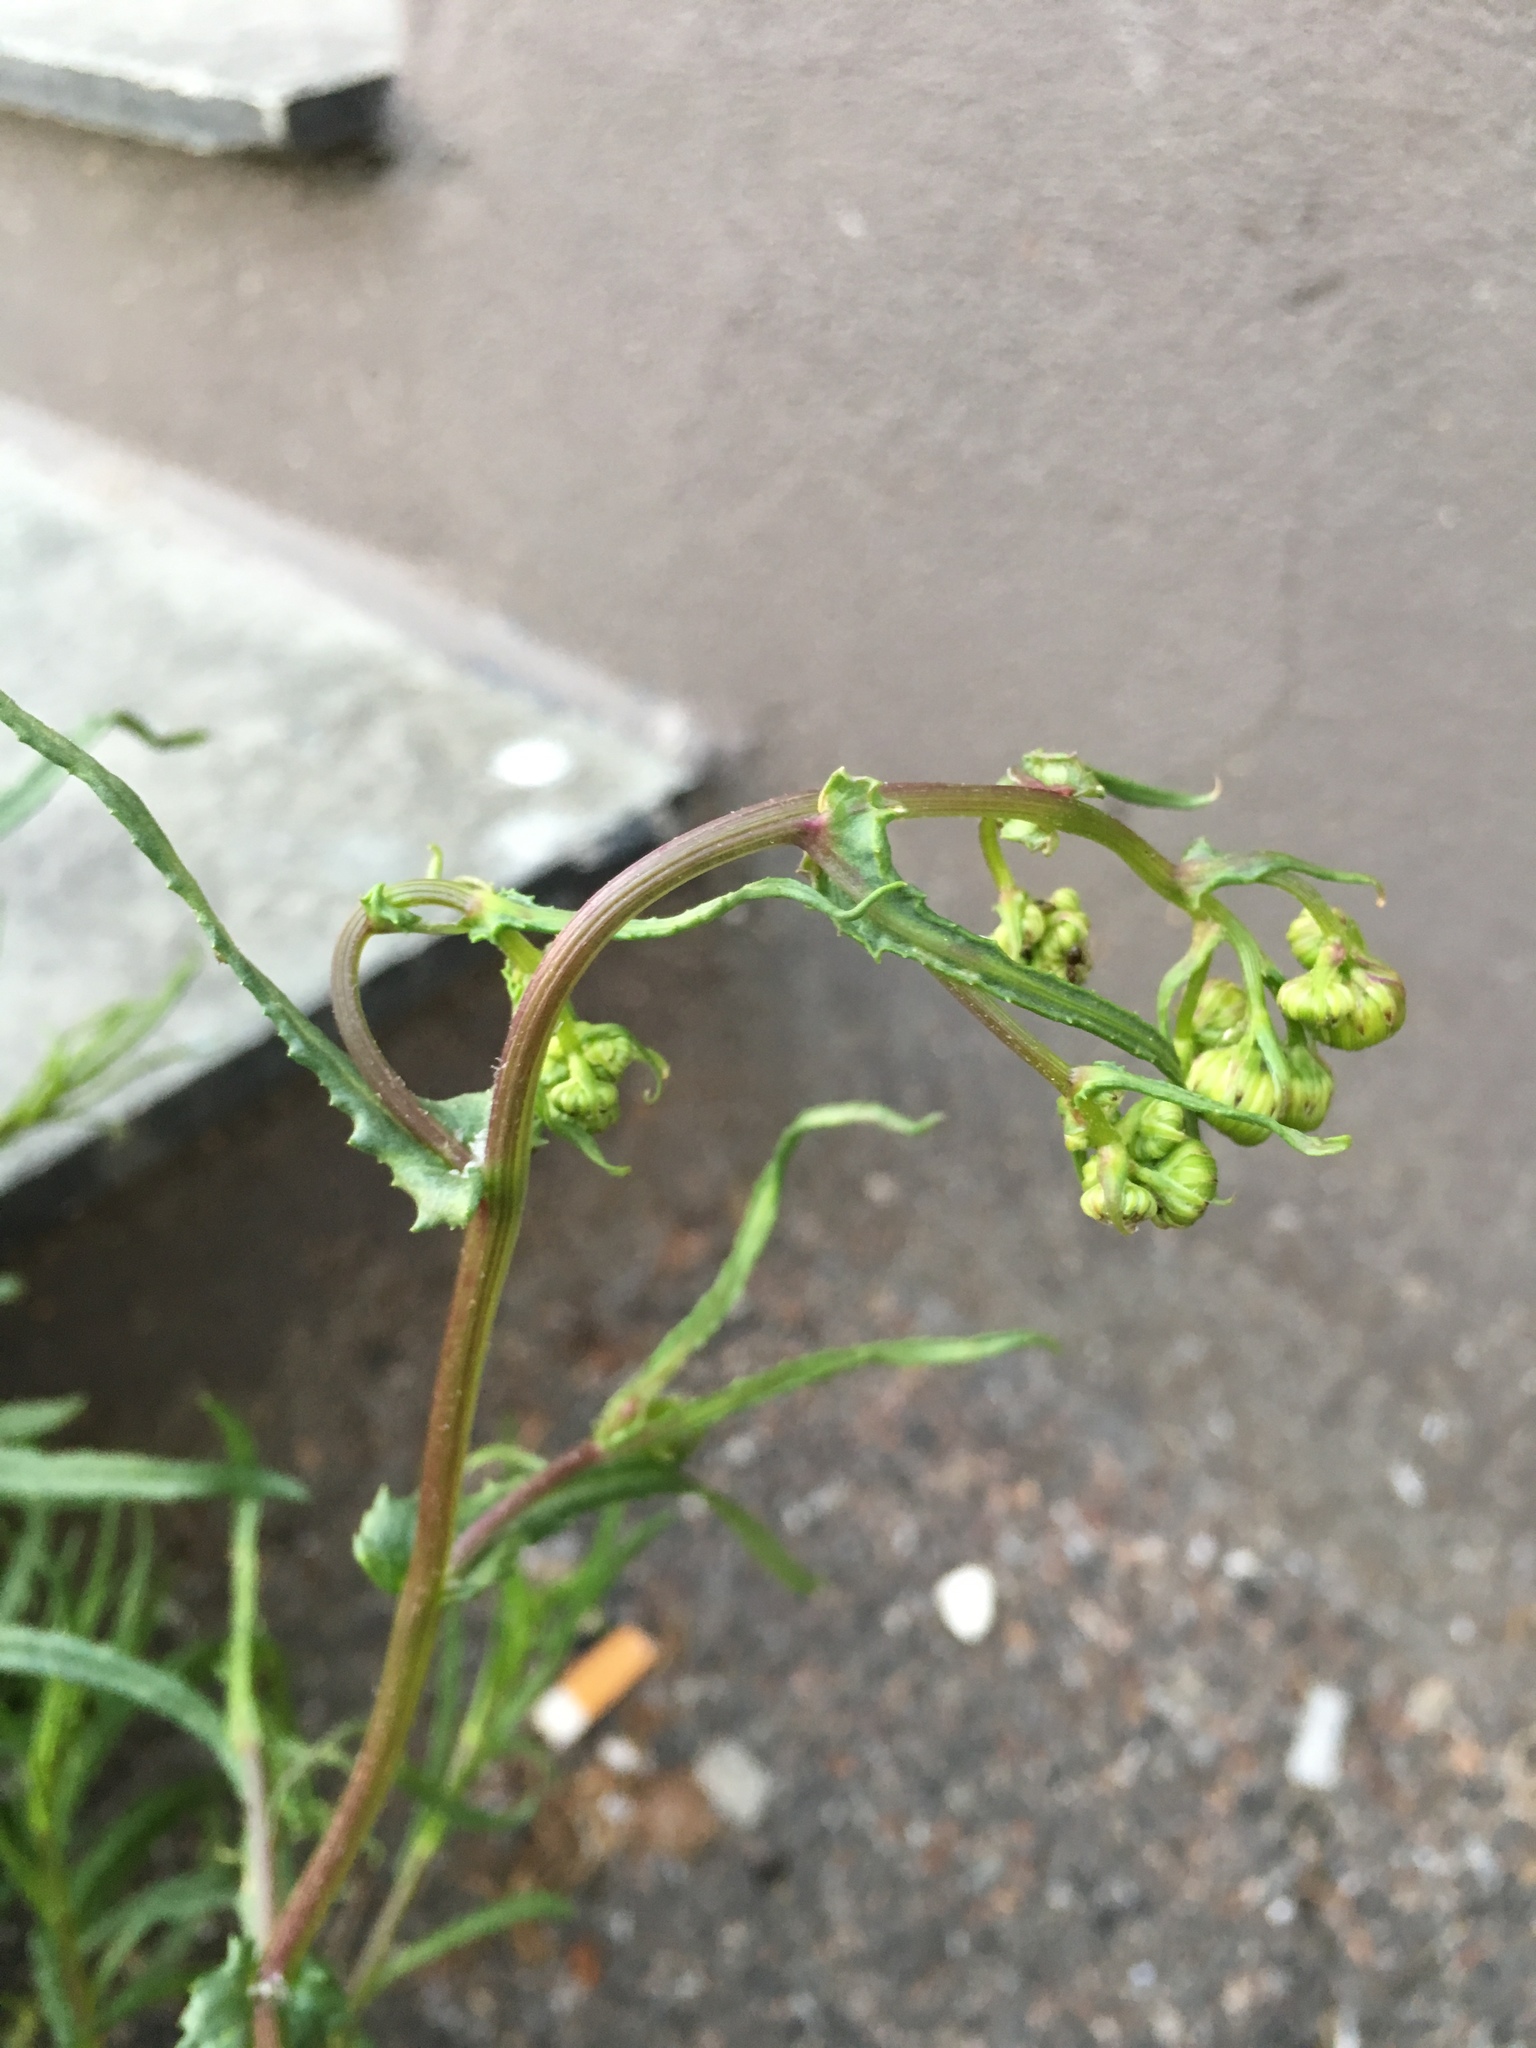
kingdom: Plantae
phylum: Tracheophyta
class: Magnoliopsida
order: Asterales
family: Asteraceae
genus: Senecio
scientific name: Senecio inaequidens
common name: Narrow-leaved ragwort
